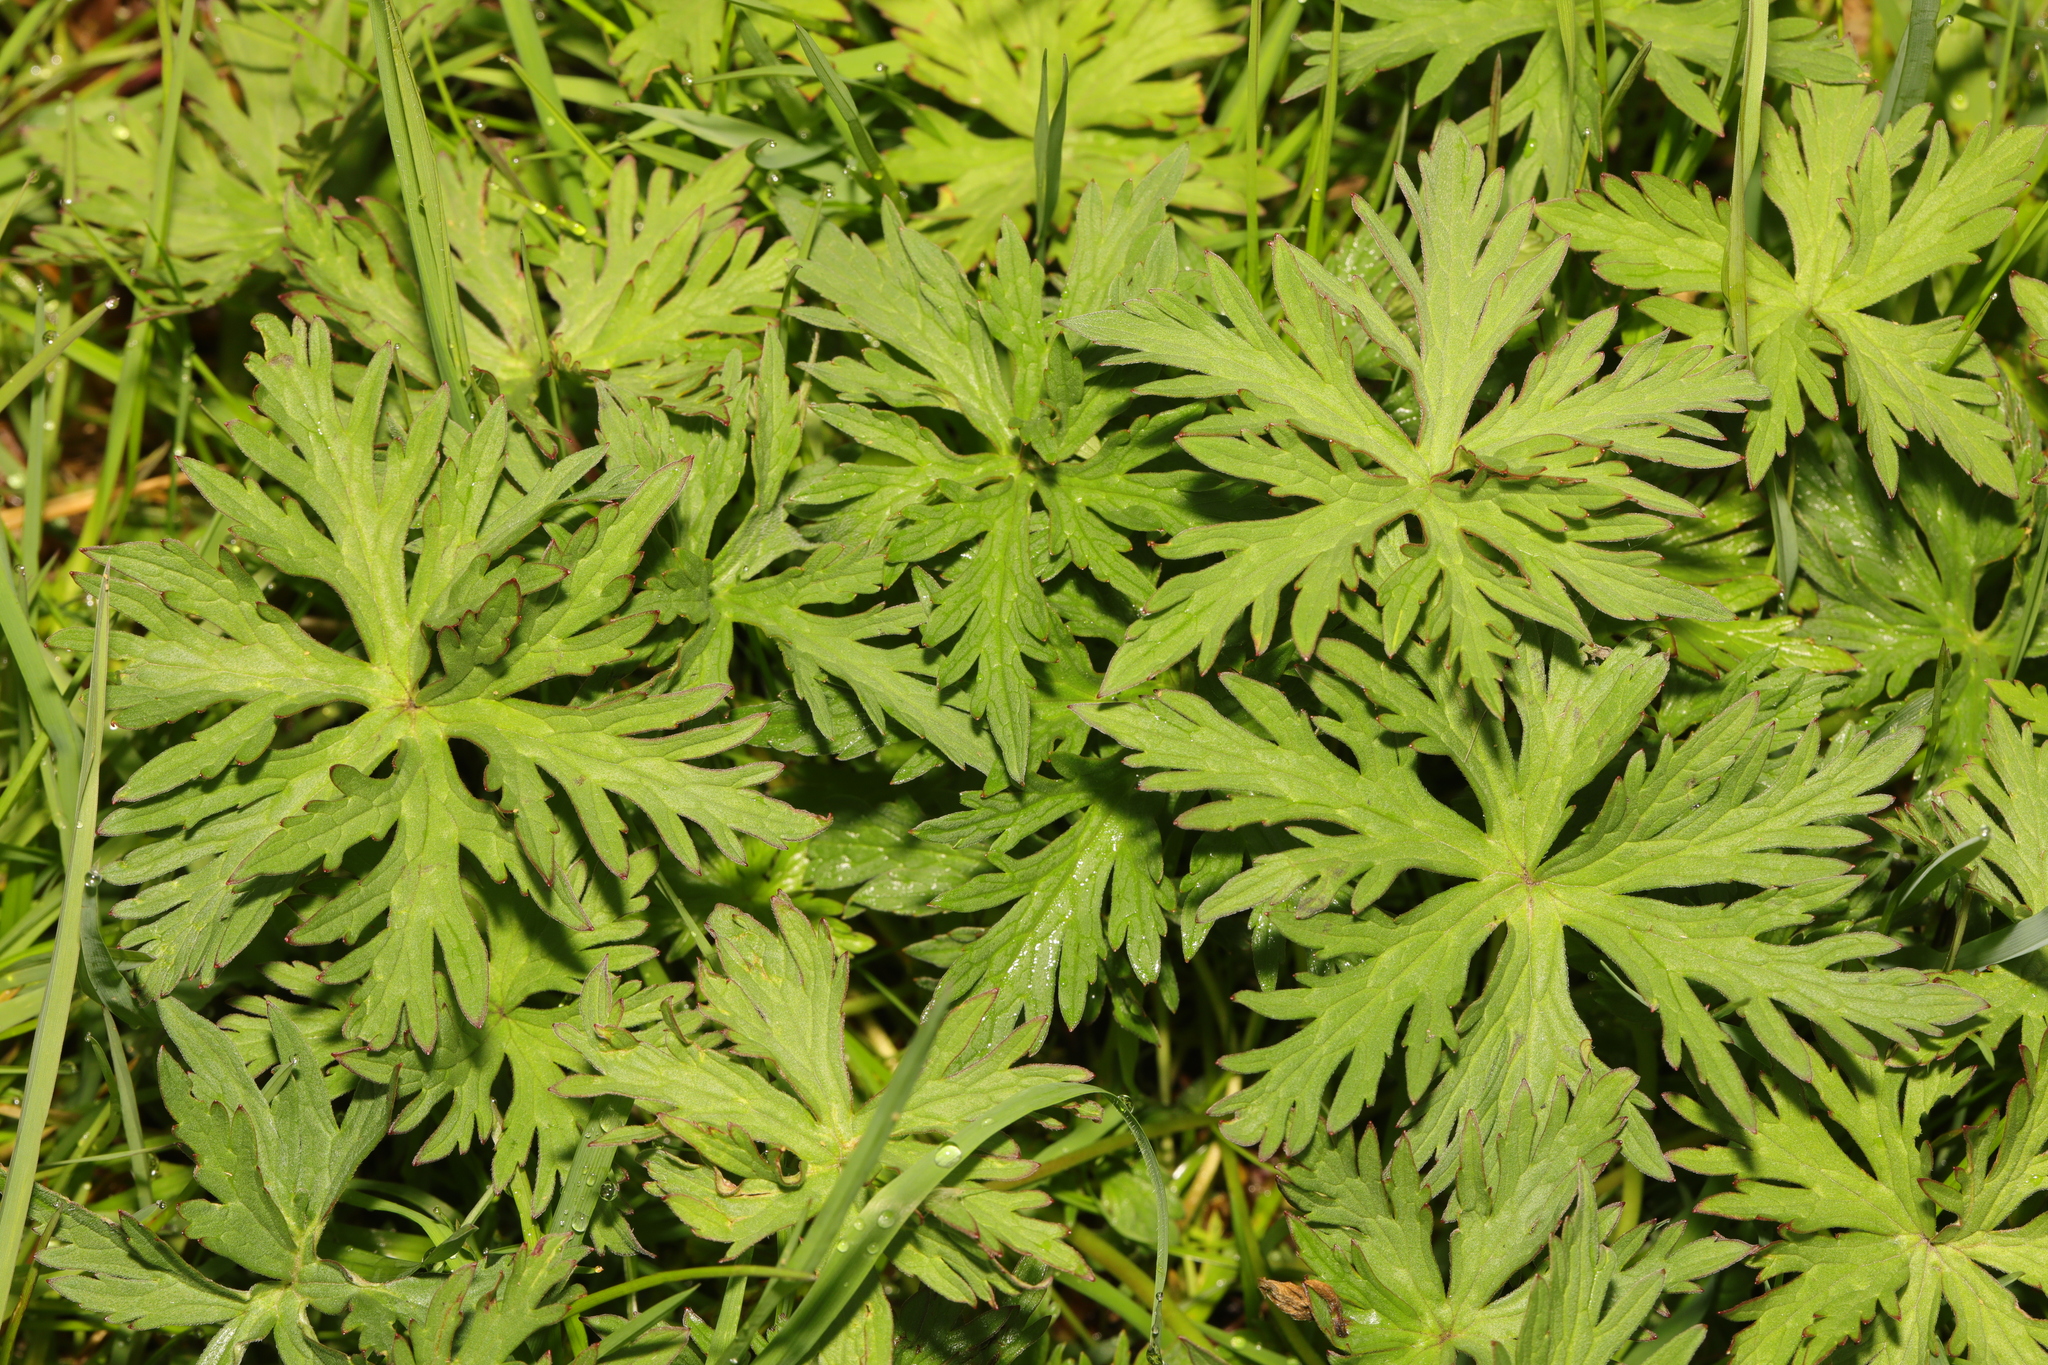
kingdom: Plantae
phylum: Tracheophyta
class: Magnoliopsida
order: Geraniales
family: Geraniaceae
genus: Geranium
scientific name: Geranium pratense
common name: Meadow crane's-bill
